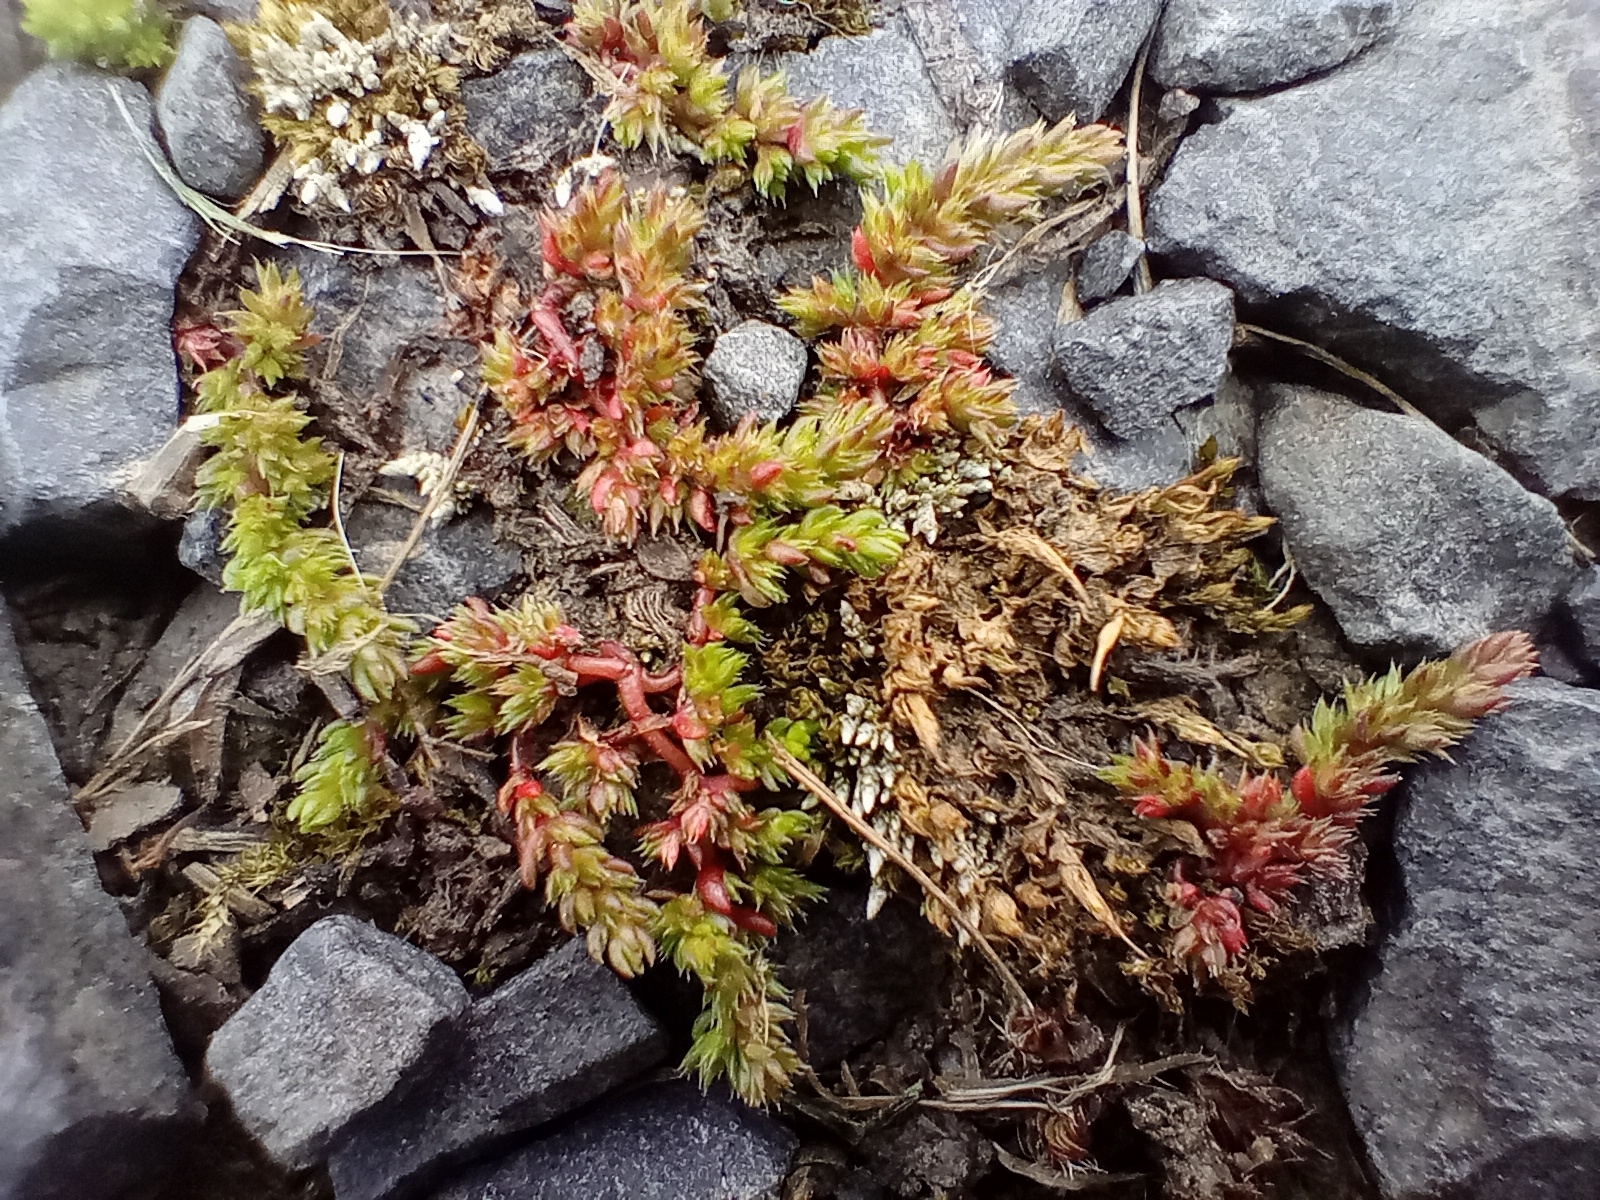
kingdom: Plantae
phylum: Tracheophyta
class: Magnoliopsida
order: Saxifragales
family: Crassulaceae
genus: Crassula
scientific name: Crassula alata
